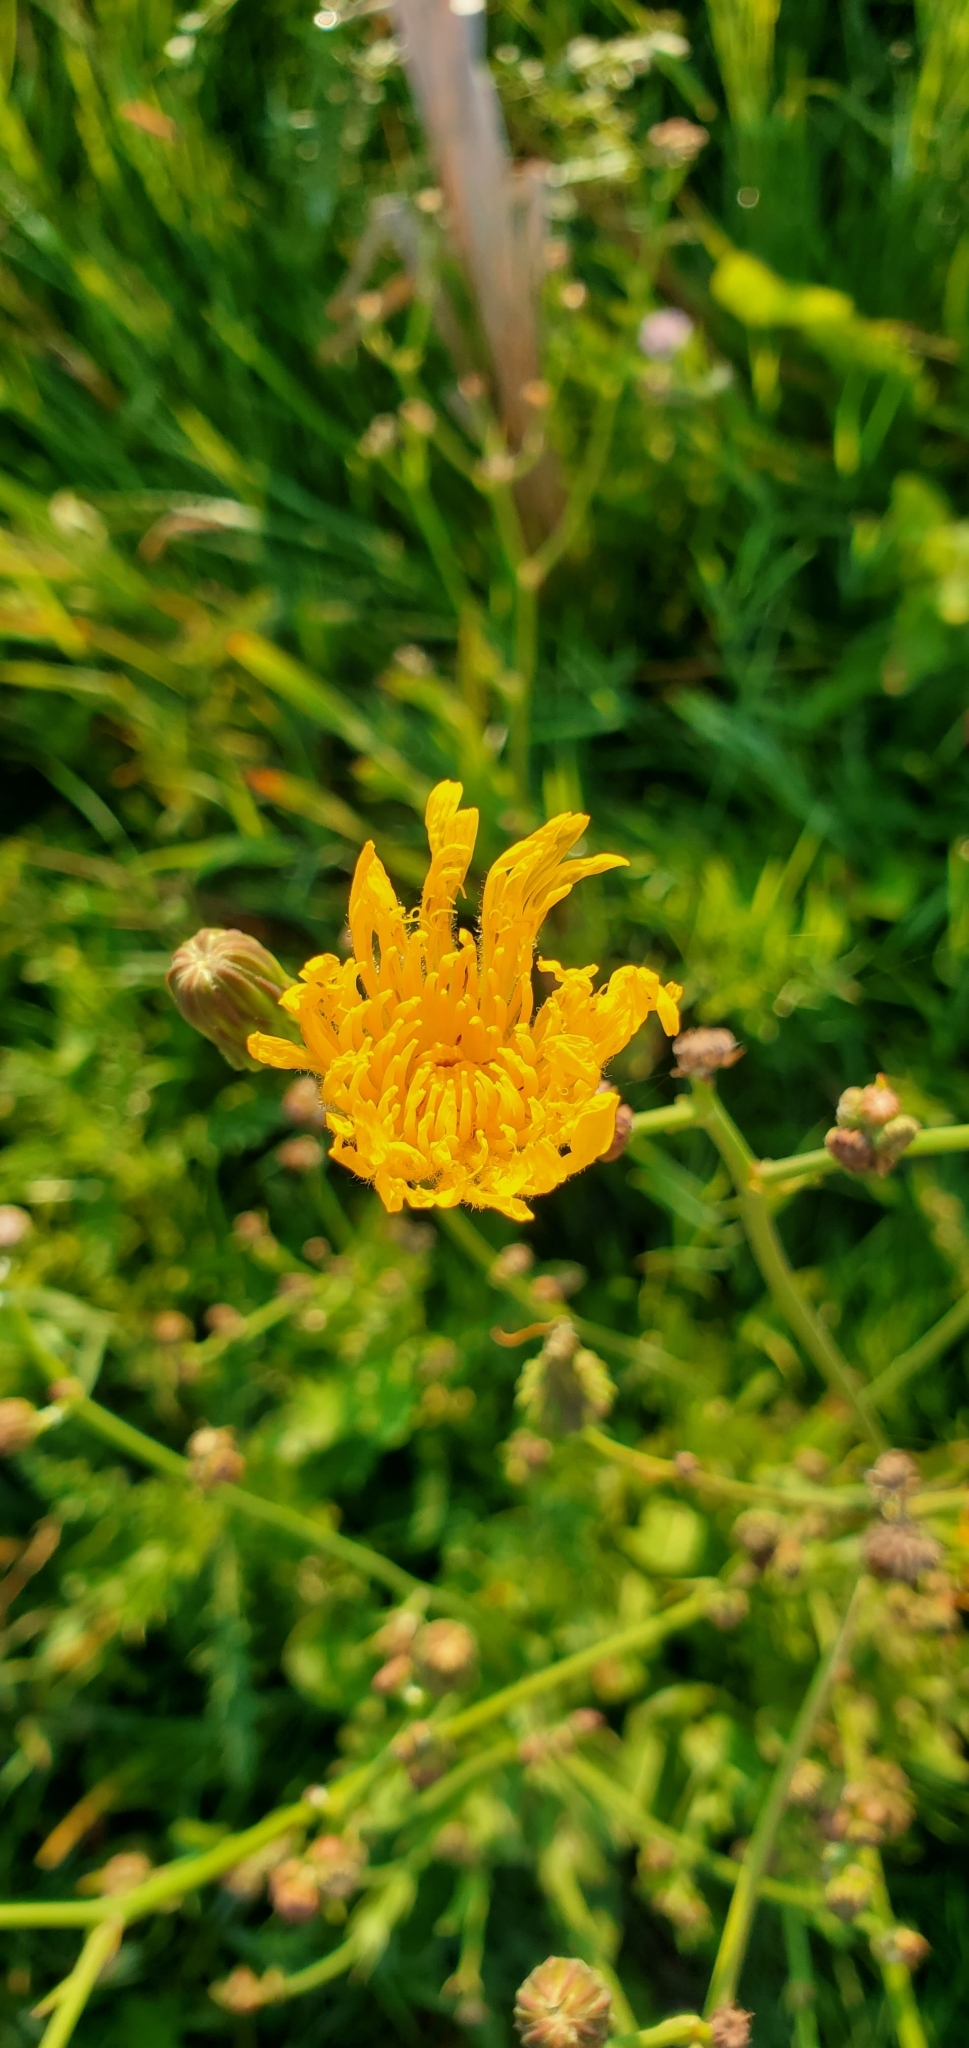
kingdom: Plantae
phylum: Tracheophyta
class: Magnoliopsida
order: Asterales
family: Asteraceae
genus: Sonchus
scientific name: Sonchus arvensis
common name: Perennial sow-thistle
